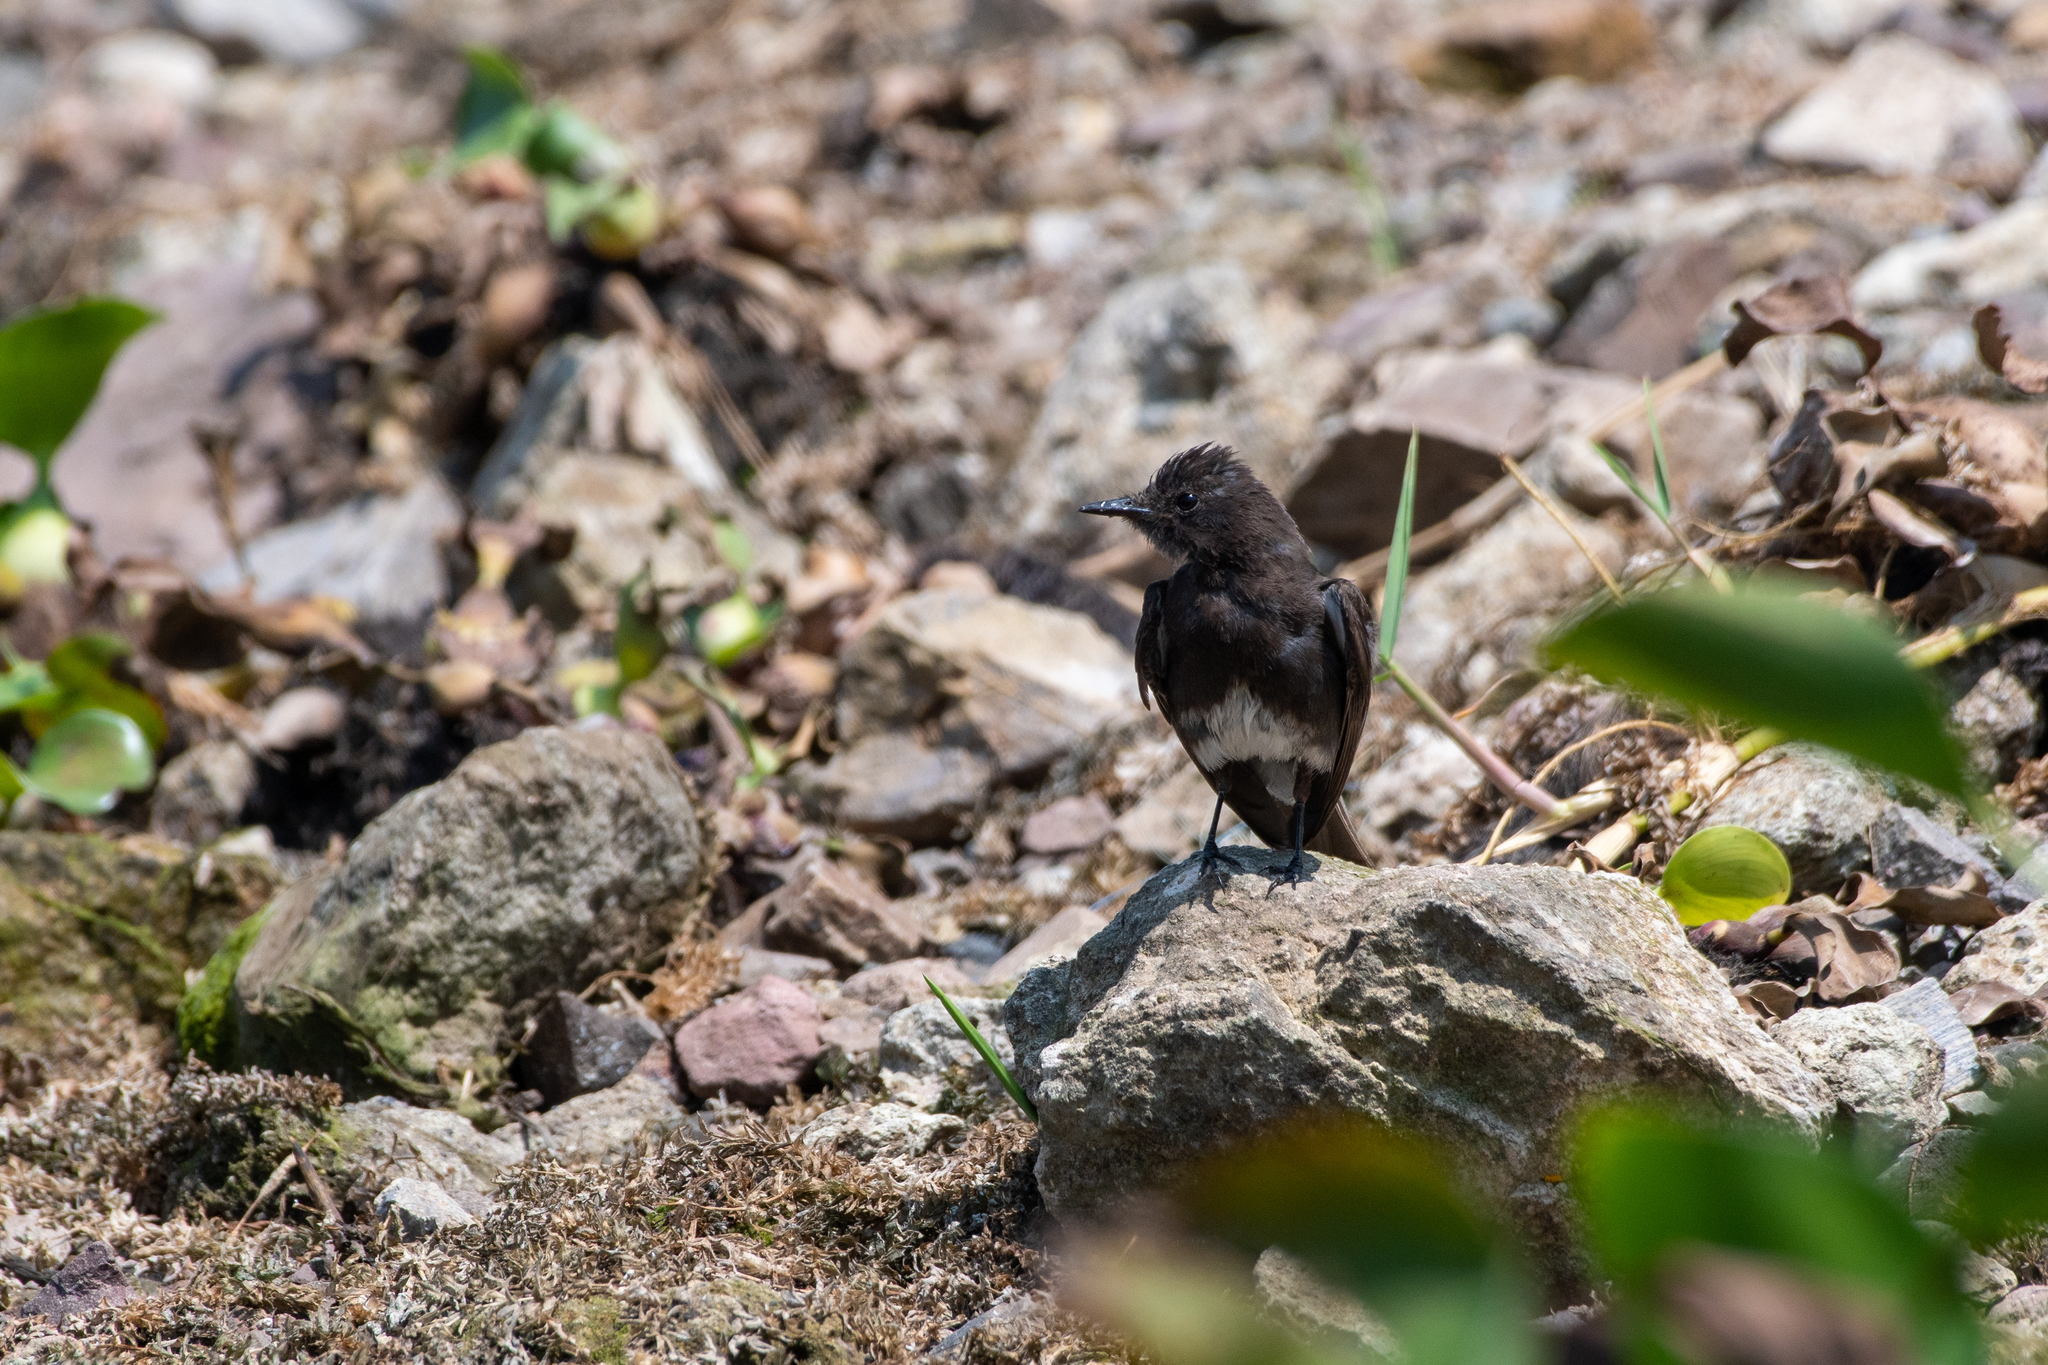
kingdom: Animalia
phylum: Chordata
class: Aves
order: Passeriformes
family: Tyrannidae
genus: Sayornis
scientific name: Sayornis nigricans
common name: Black phoebe
